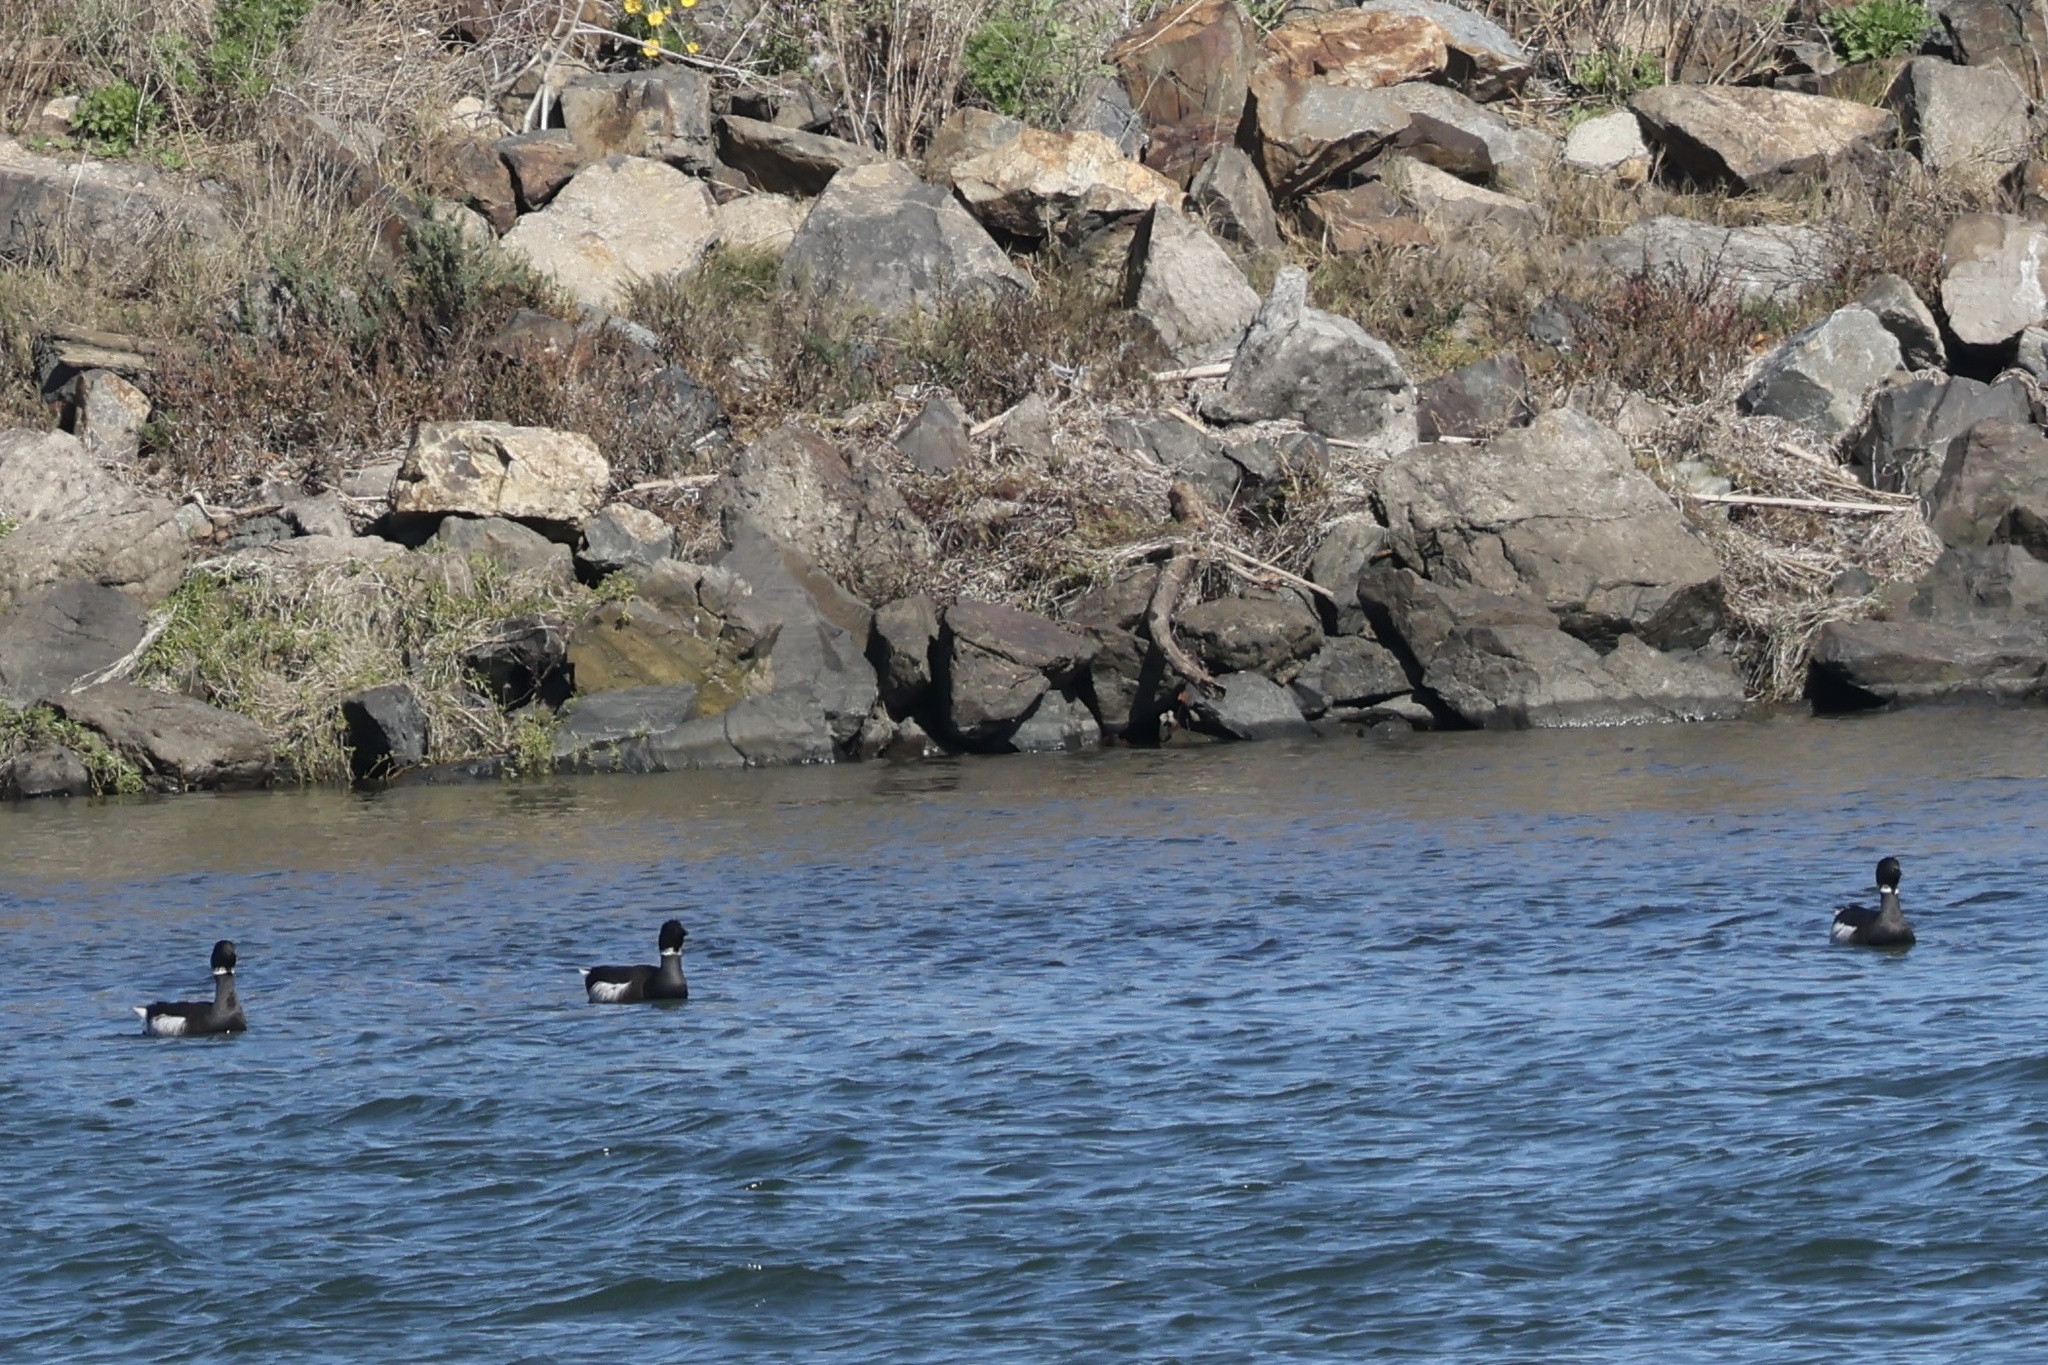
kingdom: Animalia
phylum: Chordata
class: Aves
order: Anseriformes
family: Anatidae
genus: Branta
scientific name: Branta bernicla
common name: Brant goose
